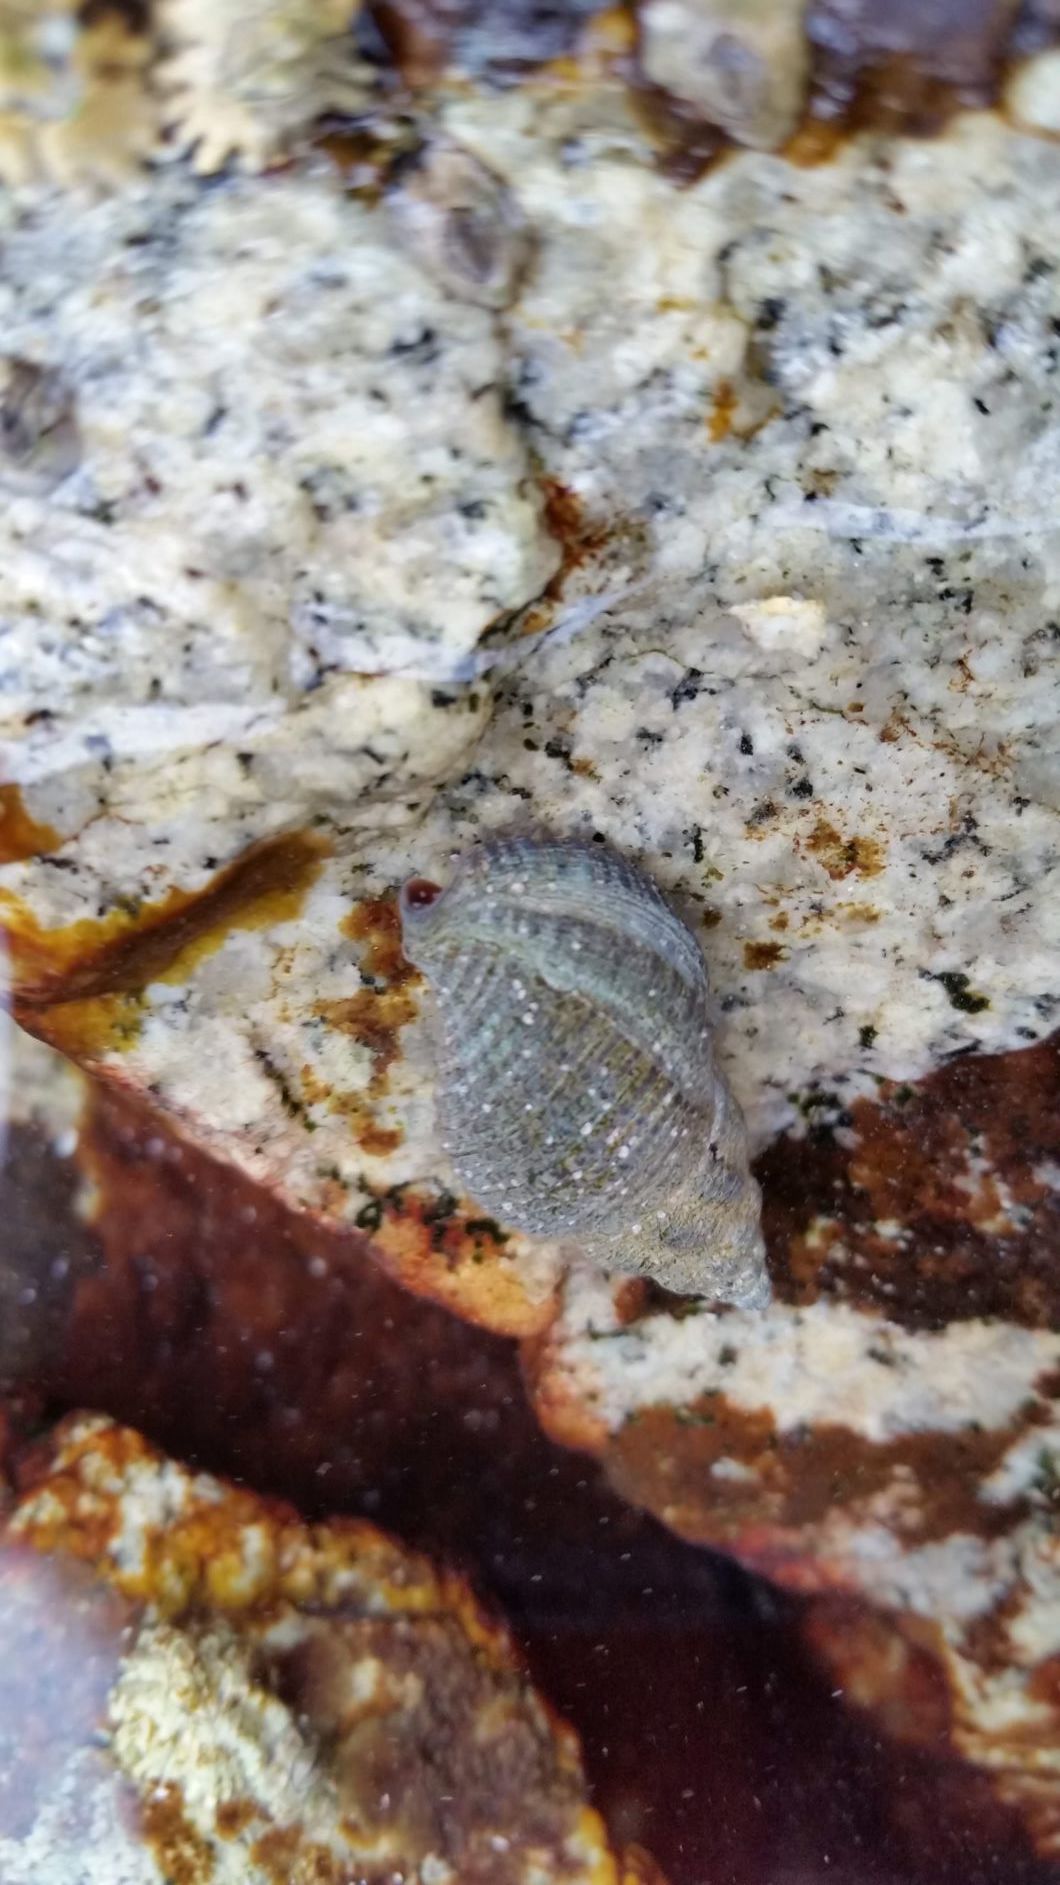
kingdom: Animalia
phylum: Mollusca
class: Gastropoda
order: Neogastropoda
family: Tudiclidae
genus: Lirabuccinum
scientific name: Lirabuccinum dirum
